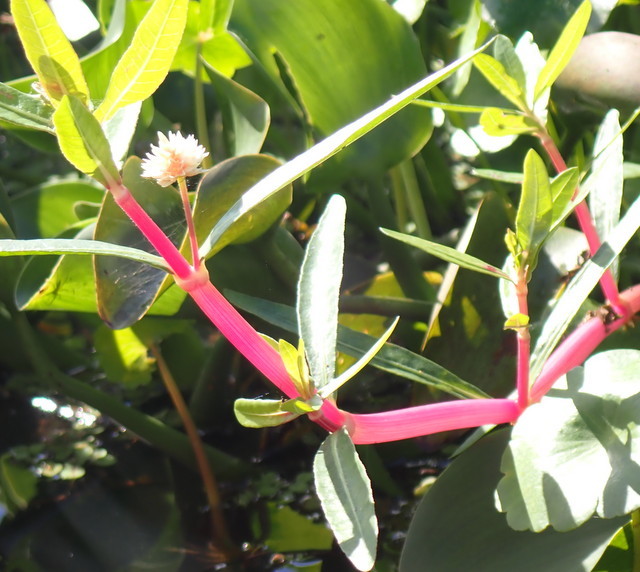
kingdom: Plantae
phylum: Tracheophyta
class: Magnoliopsida
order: Caryophyllales
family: Amaranthaceae
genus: Alternanthera
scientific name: Alternanthera philoxeroides
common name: Alligatorweed
